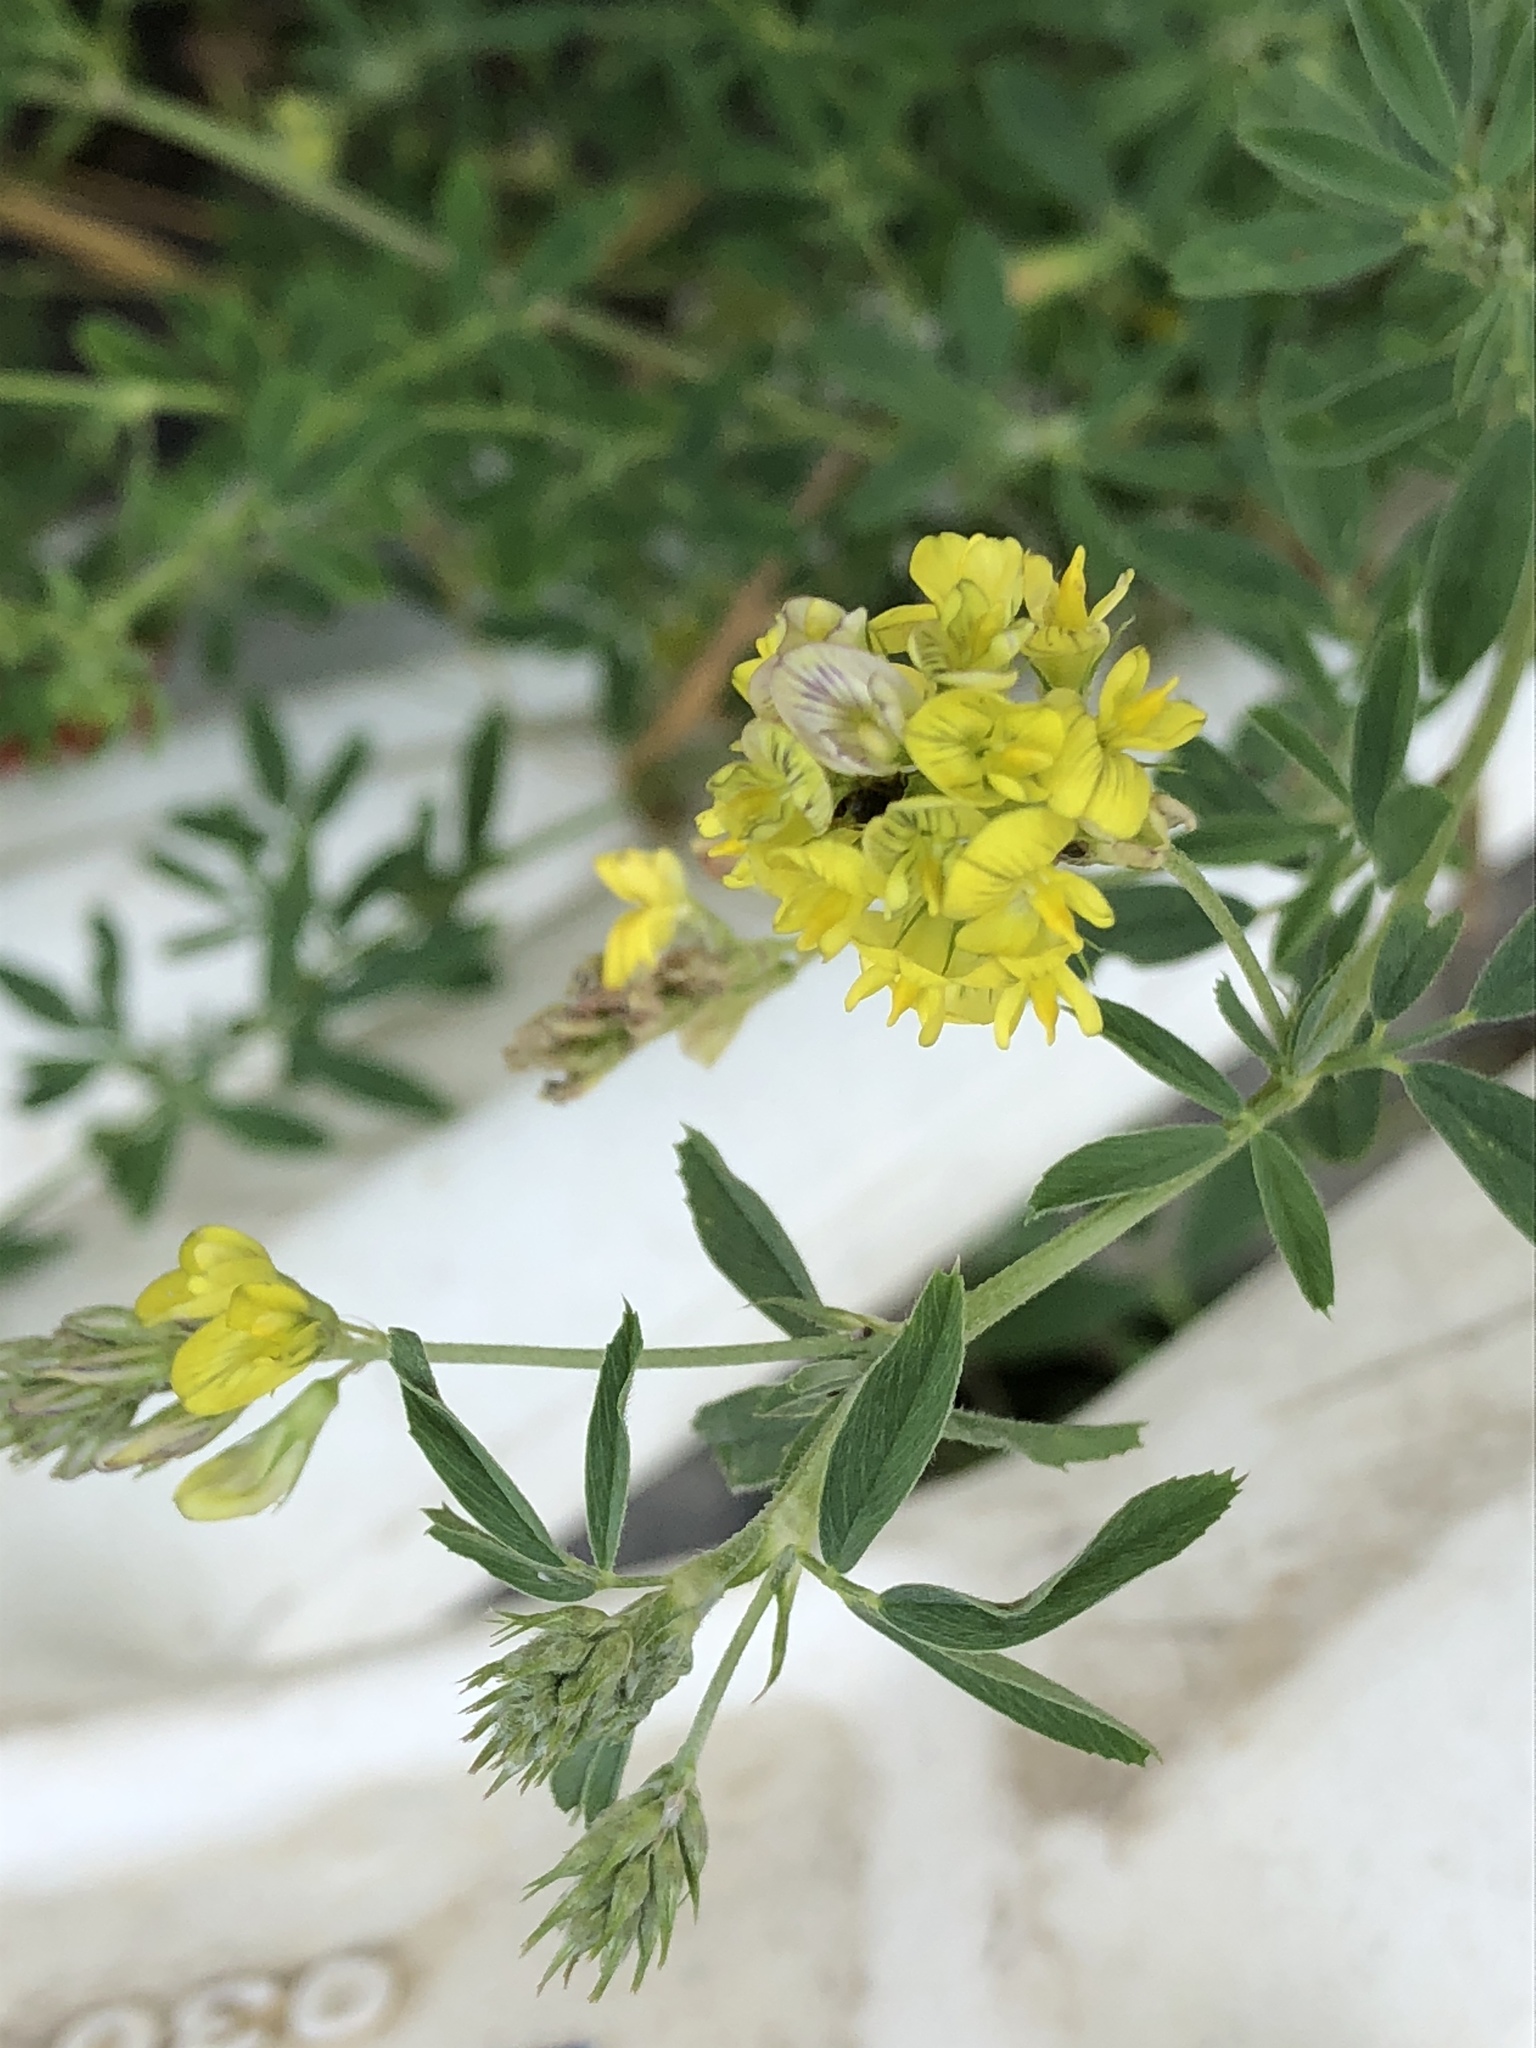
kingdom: Plantae
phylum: Tracheophyta
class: Magnoliopsida
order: Fabales
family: Fabaceae
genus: Medicago
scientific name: Medicago falcata
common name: Sickle medick
